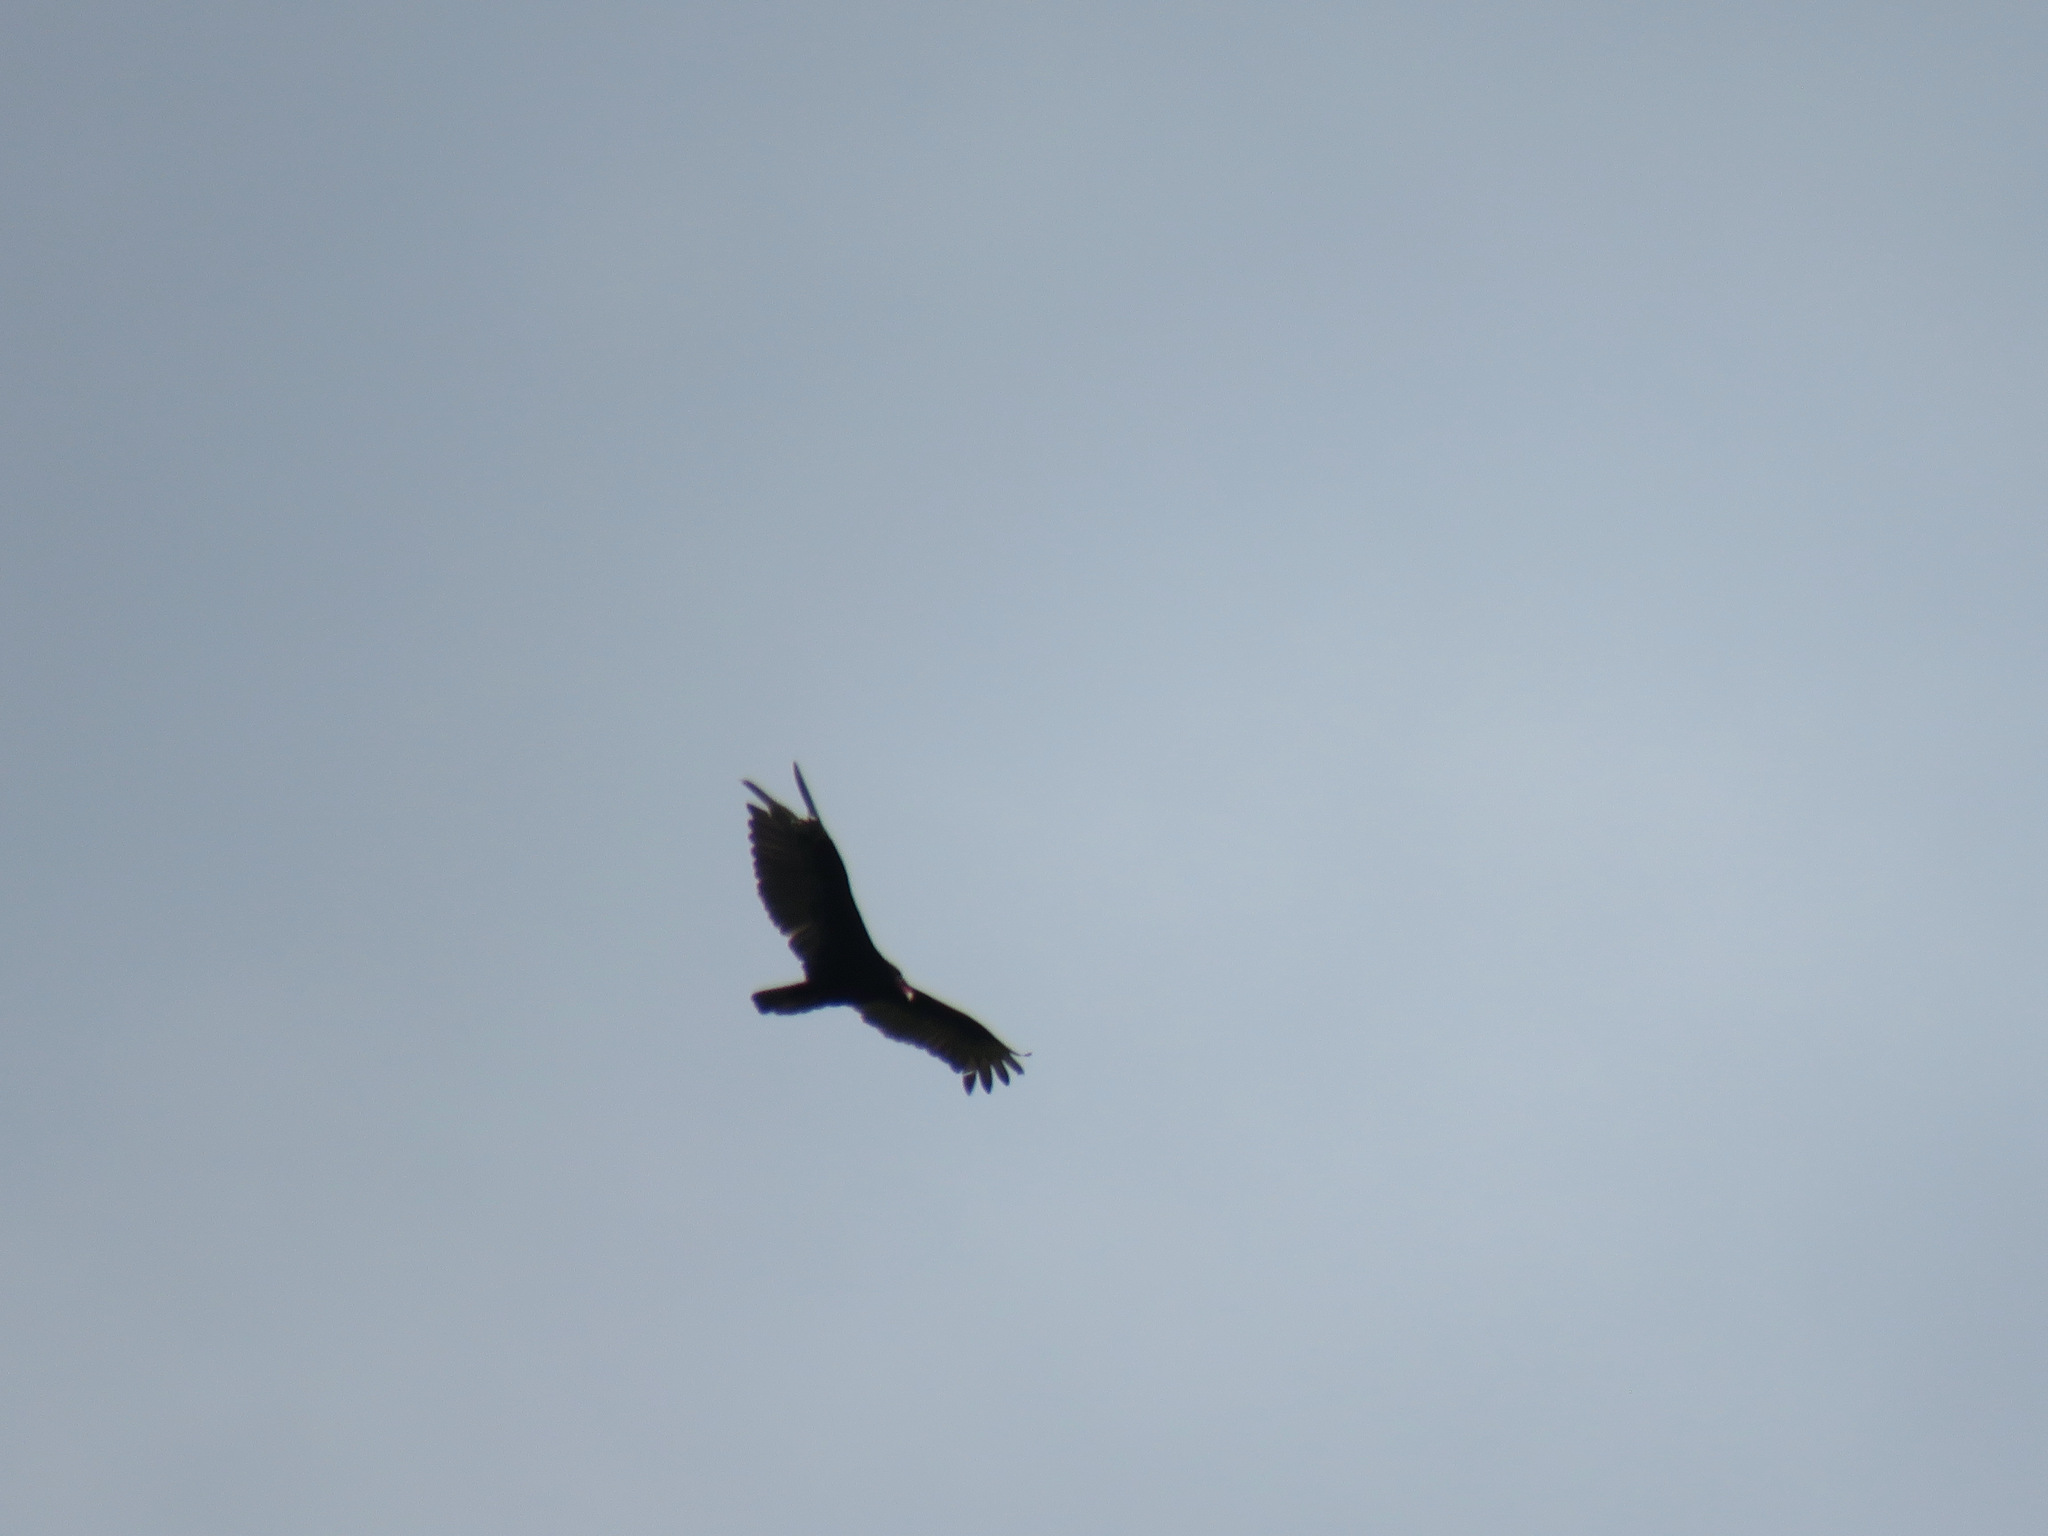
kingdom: Animalia
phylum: Chordata
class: Aves
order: Accipitriformes
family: Cathartidae
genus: Cathartes
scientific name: Cathartes aura
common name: Turkey vulture
